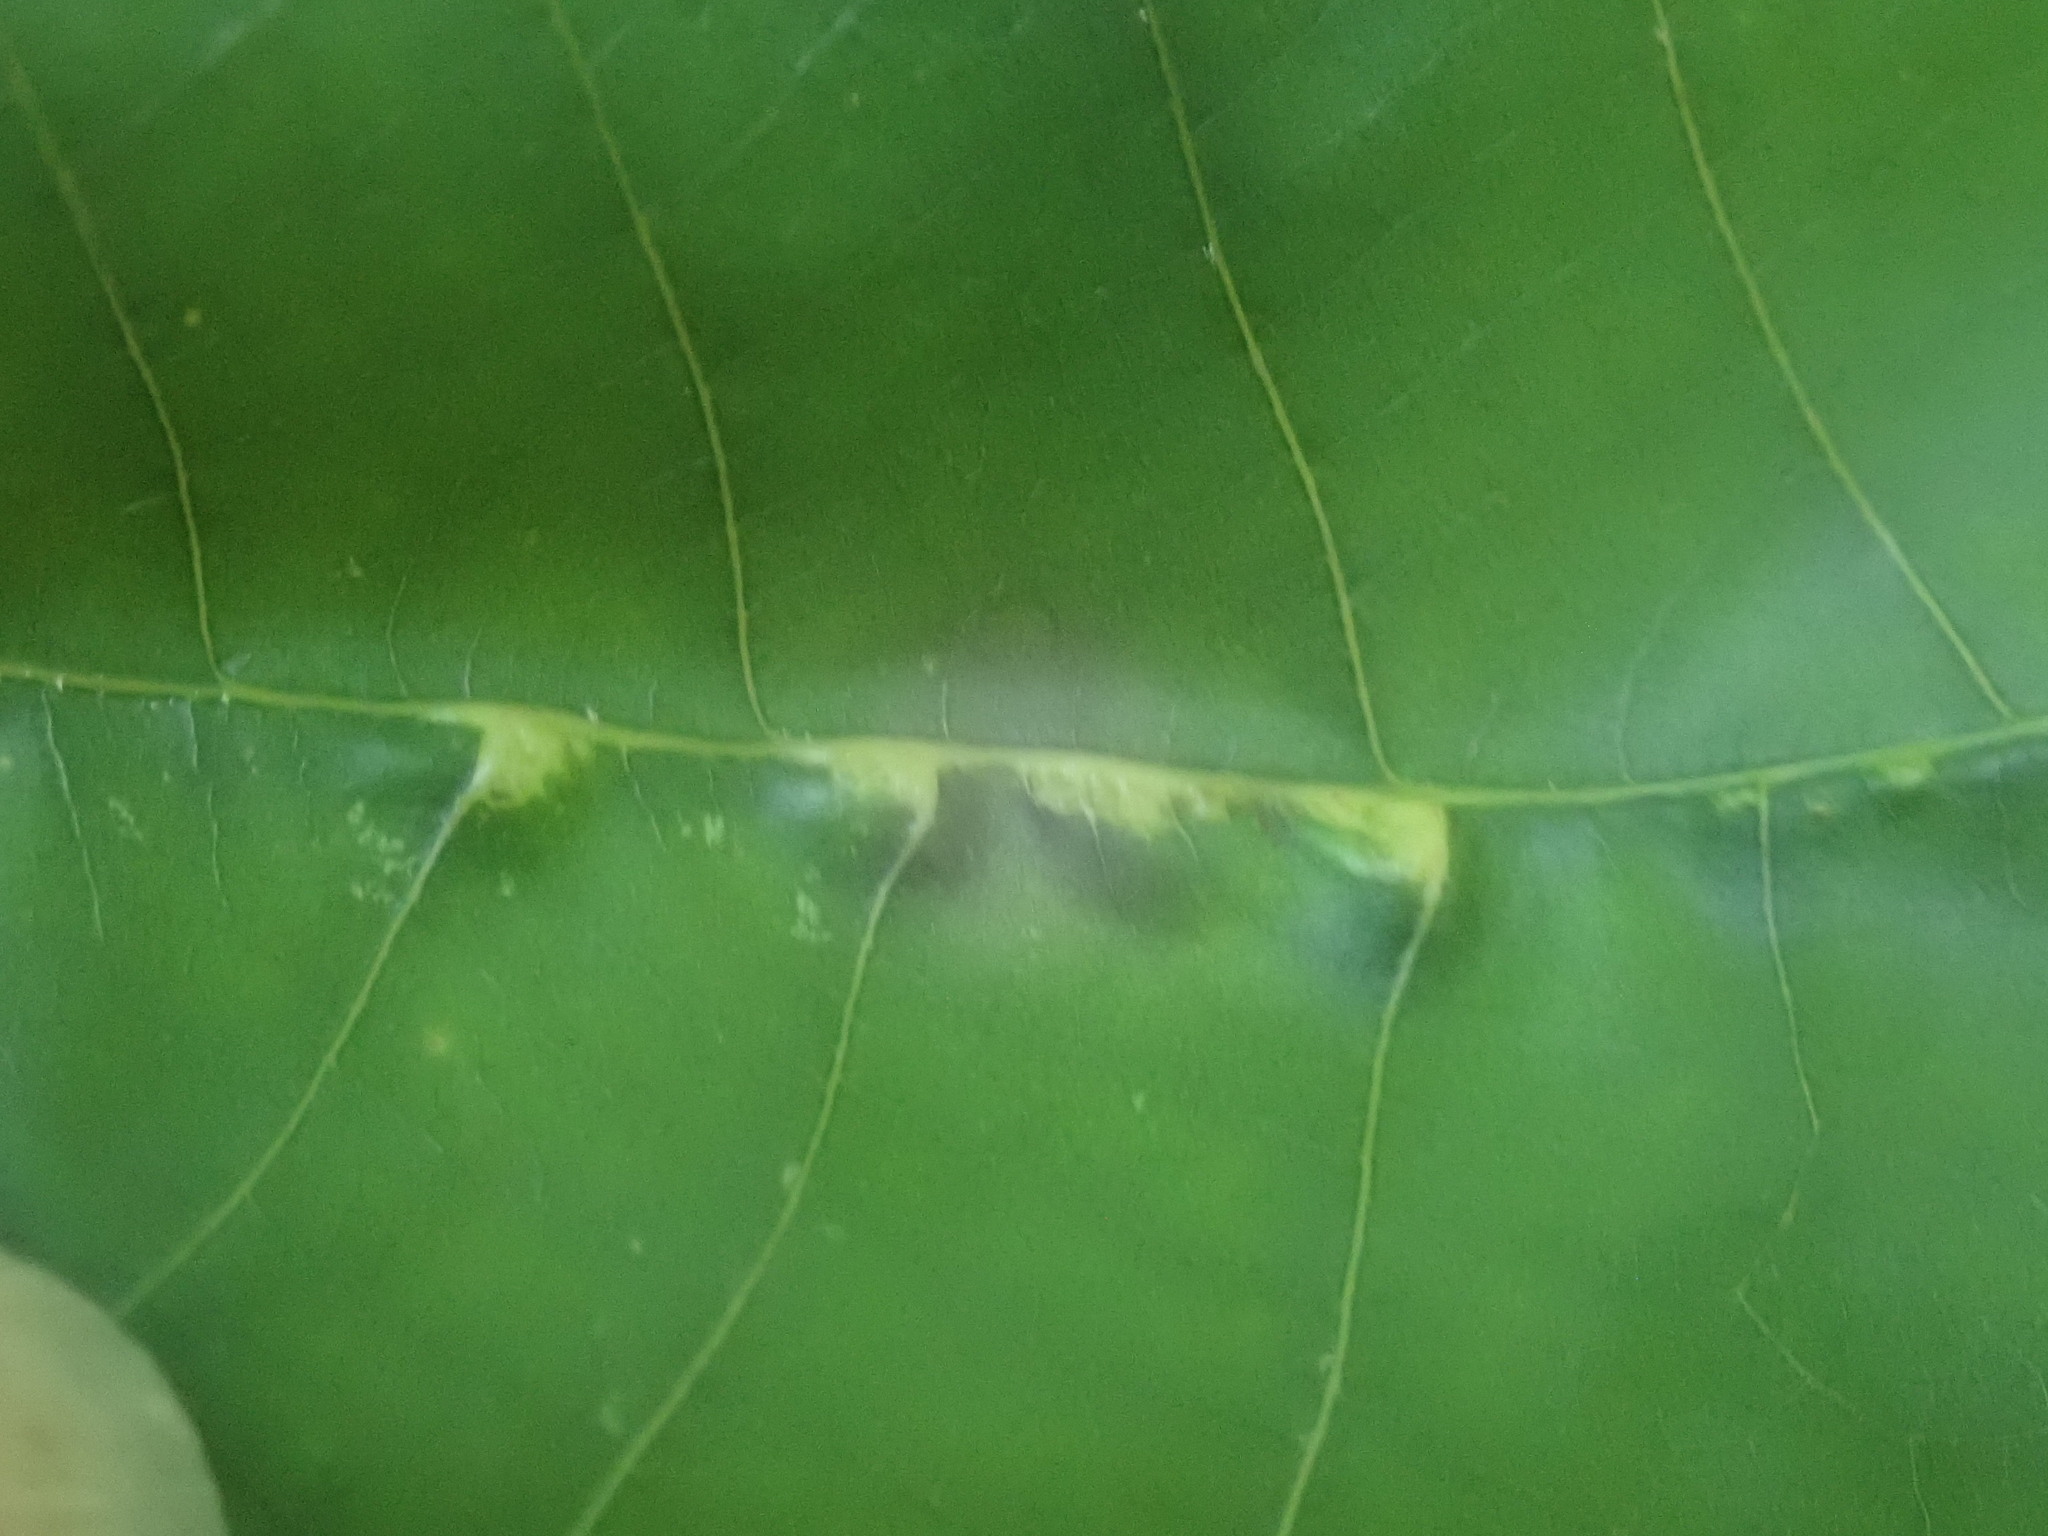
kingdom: Animalia
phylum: Arthropoda
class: Insecta
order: Diptera
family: Cecidomyiidae
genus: Caryomyia
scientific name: Caryomyia aggregata
